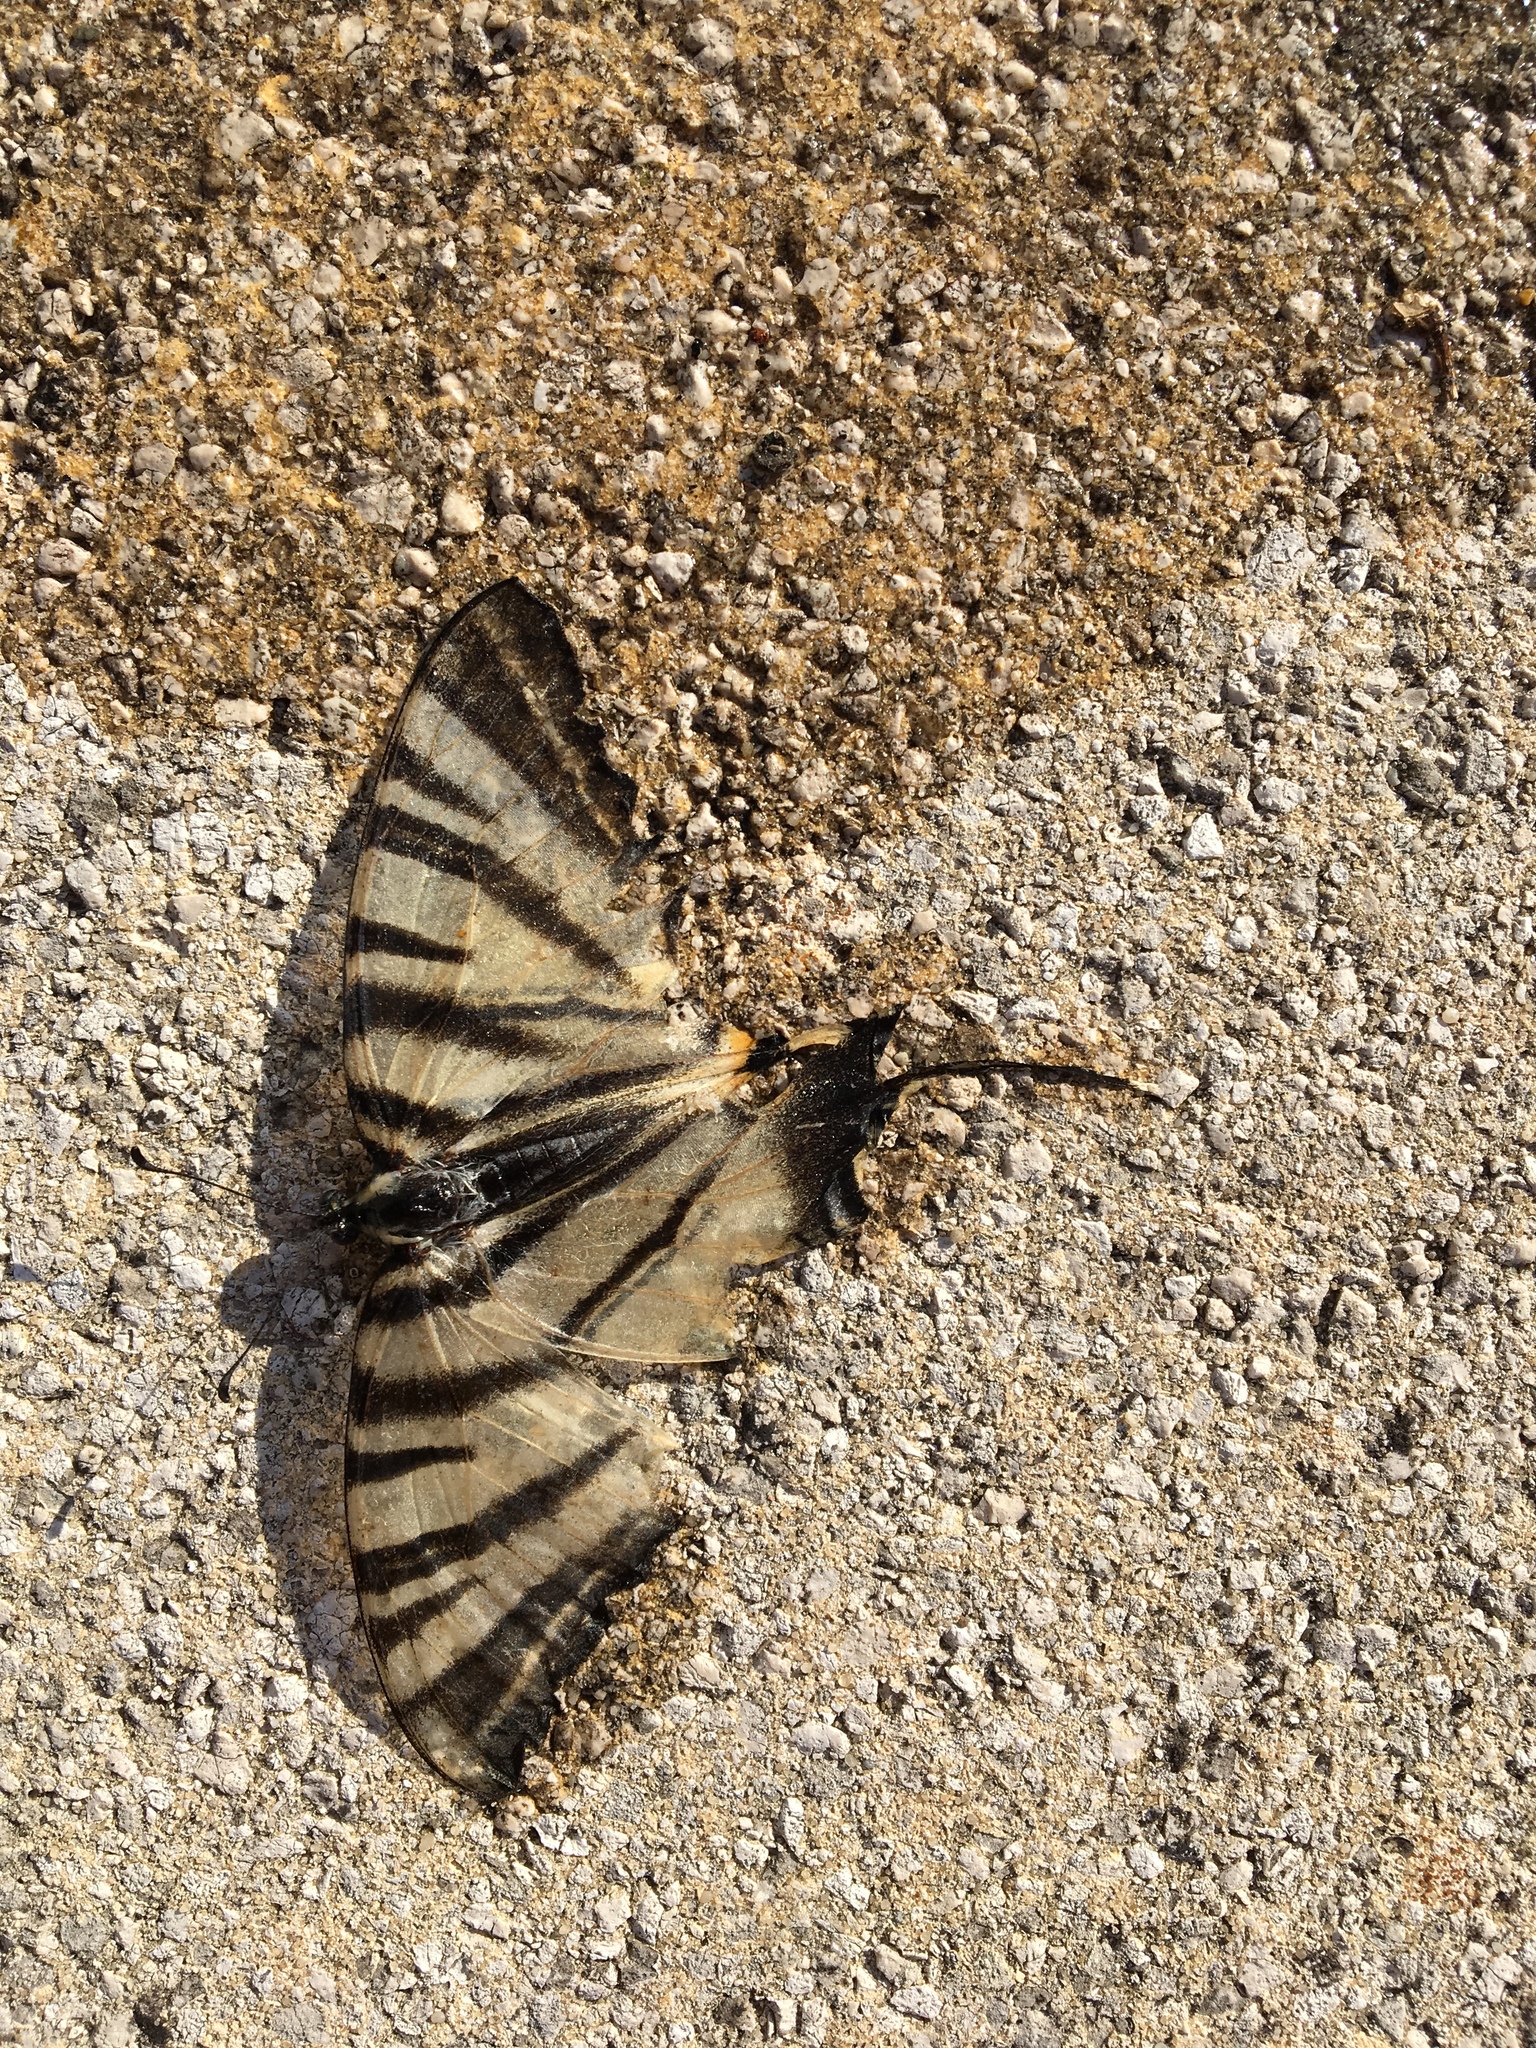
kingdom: Animalia
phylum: Arthropoda
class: Insecta
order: Lepidoptera
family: Papilionidae
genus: Iphiclides
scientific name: Iphiclides podalirius
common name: Scarce swallowtail
